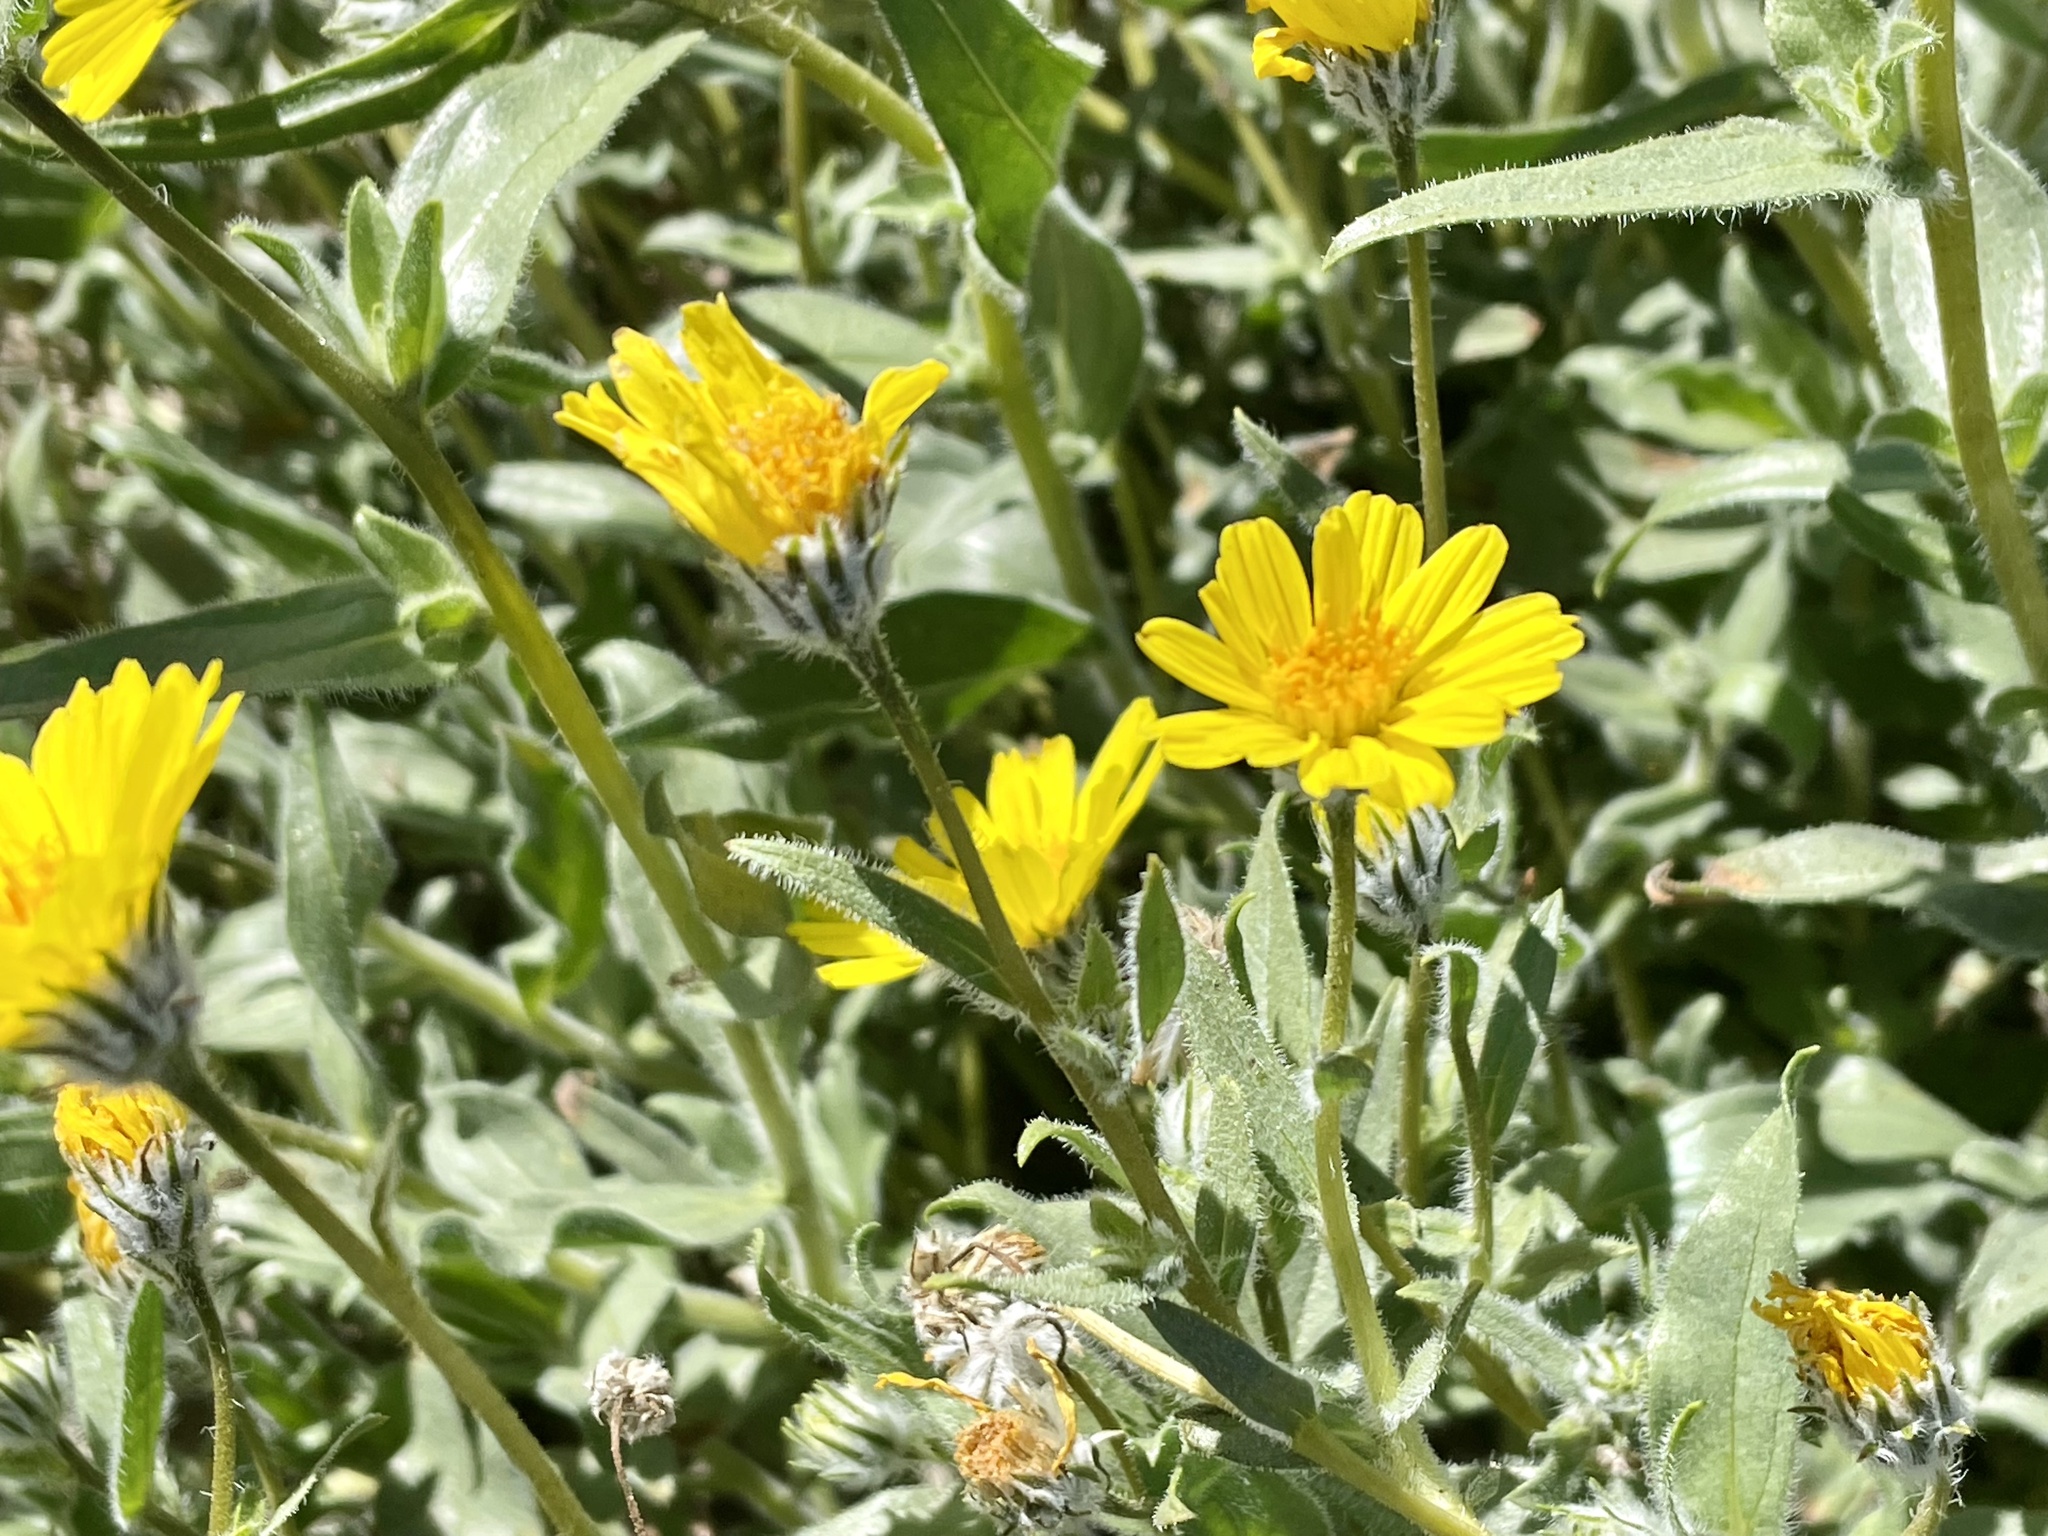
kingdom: Plantae
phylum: Tracheophyta
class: Magnoliopsida
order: Asterales
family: Asteraceae
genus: Geraea
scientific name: Geraea canescens
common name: Desert-gold
